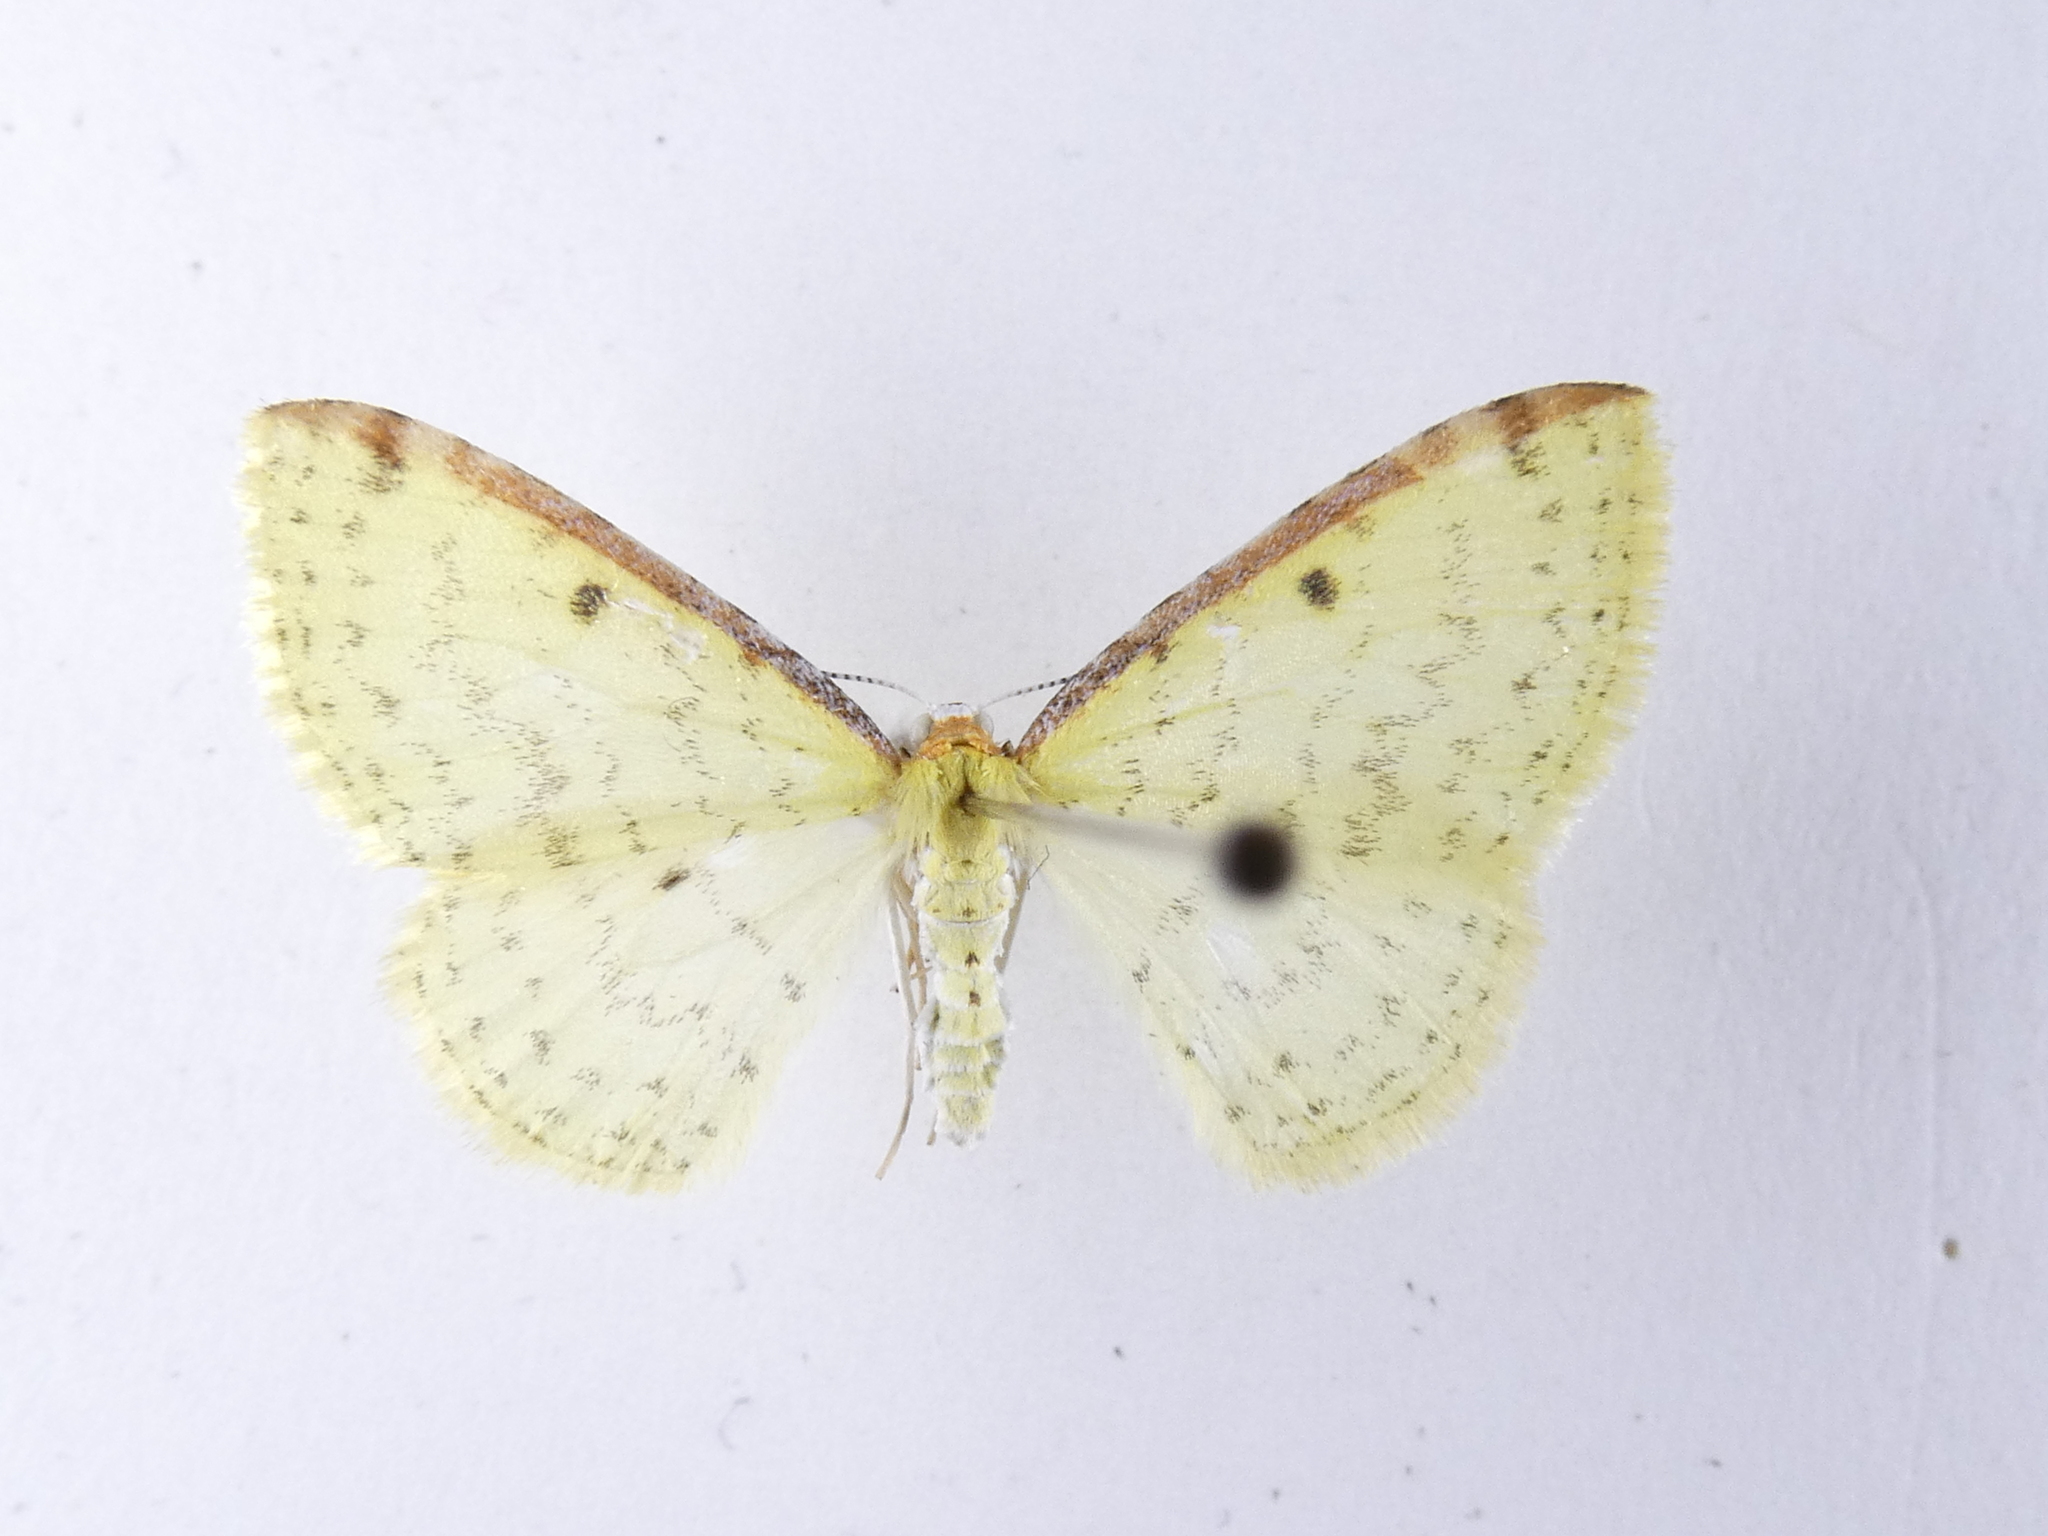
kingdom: Animalia
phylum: Arthropoda
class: Insecta
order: Lepidoptera
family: Geometridae
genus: Epiphryne
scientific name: Epiphryne undosata
